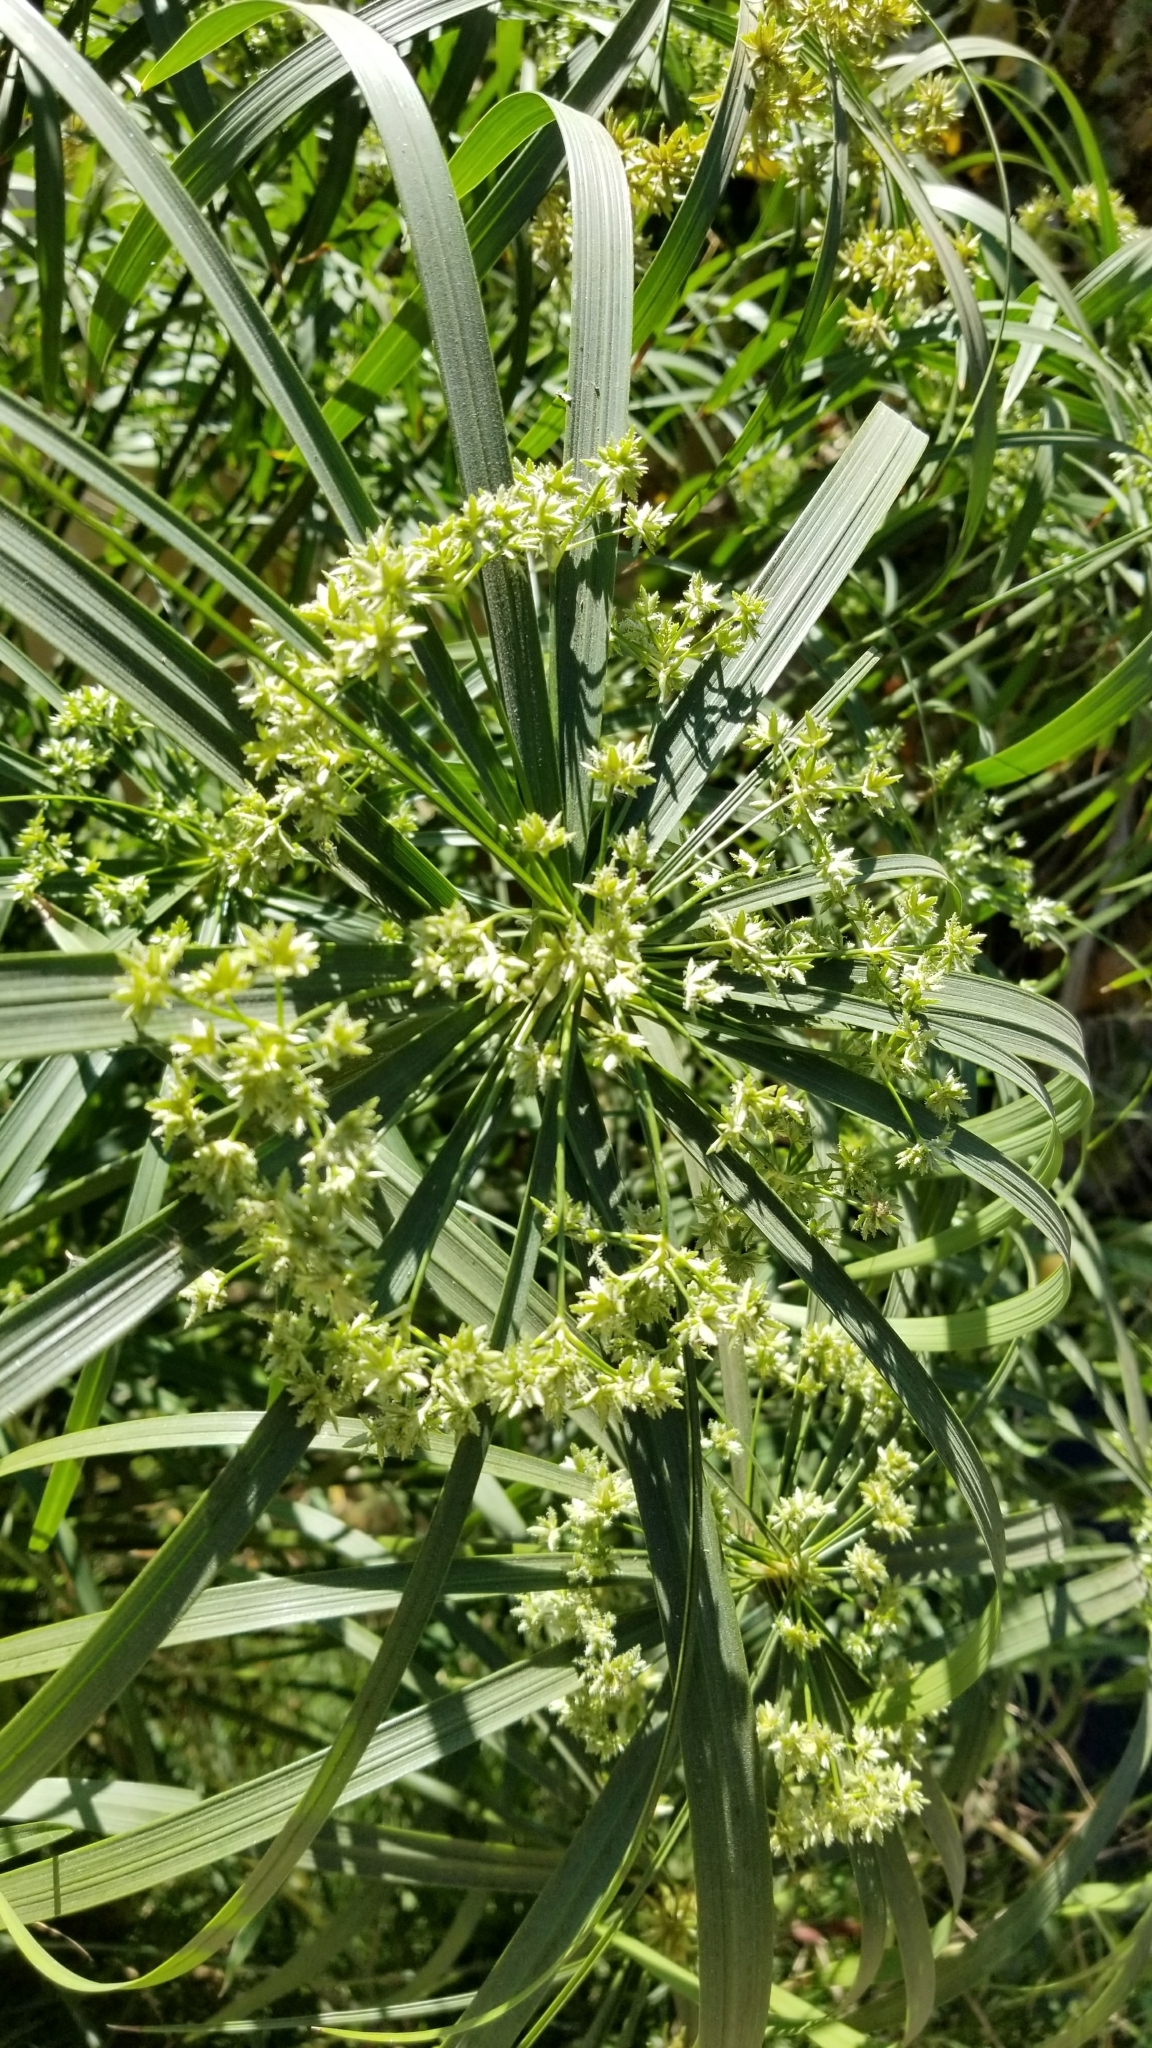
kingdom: Plantae
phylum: Tracheophyta
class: Liliopsida
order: Poales
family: Cyperaceae
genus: Cyperus
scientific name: Cyperus alternifolius
